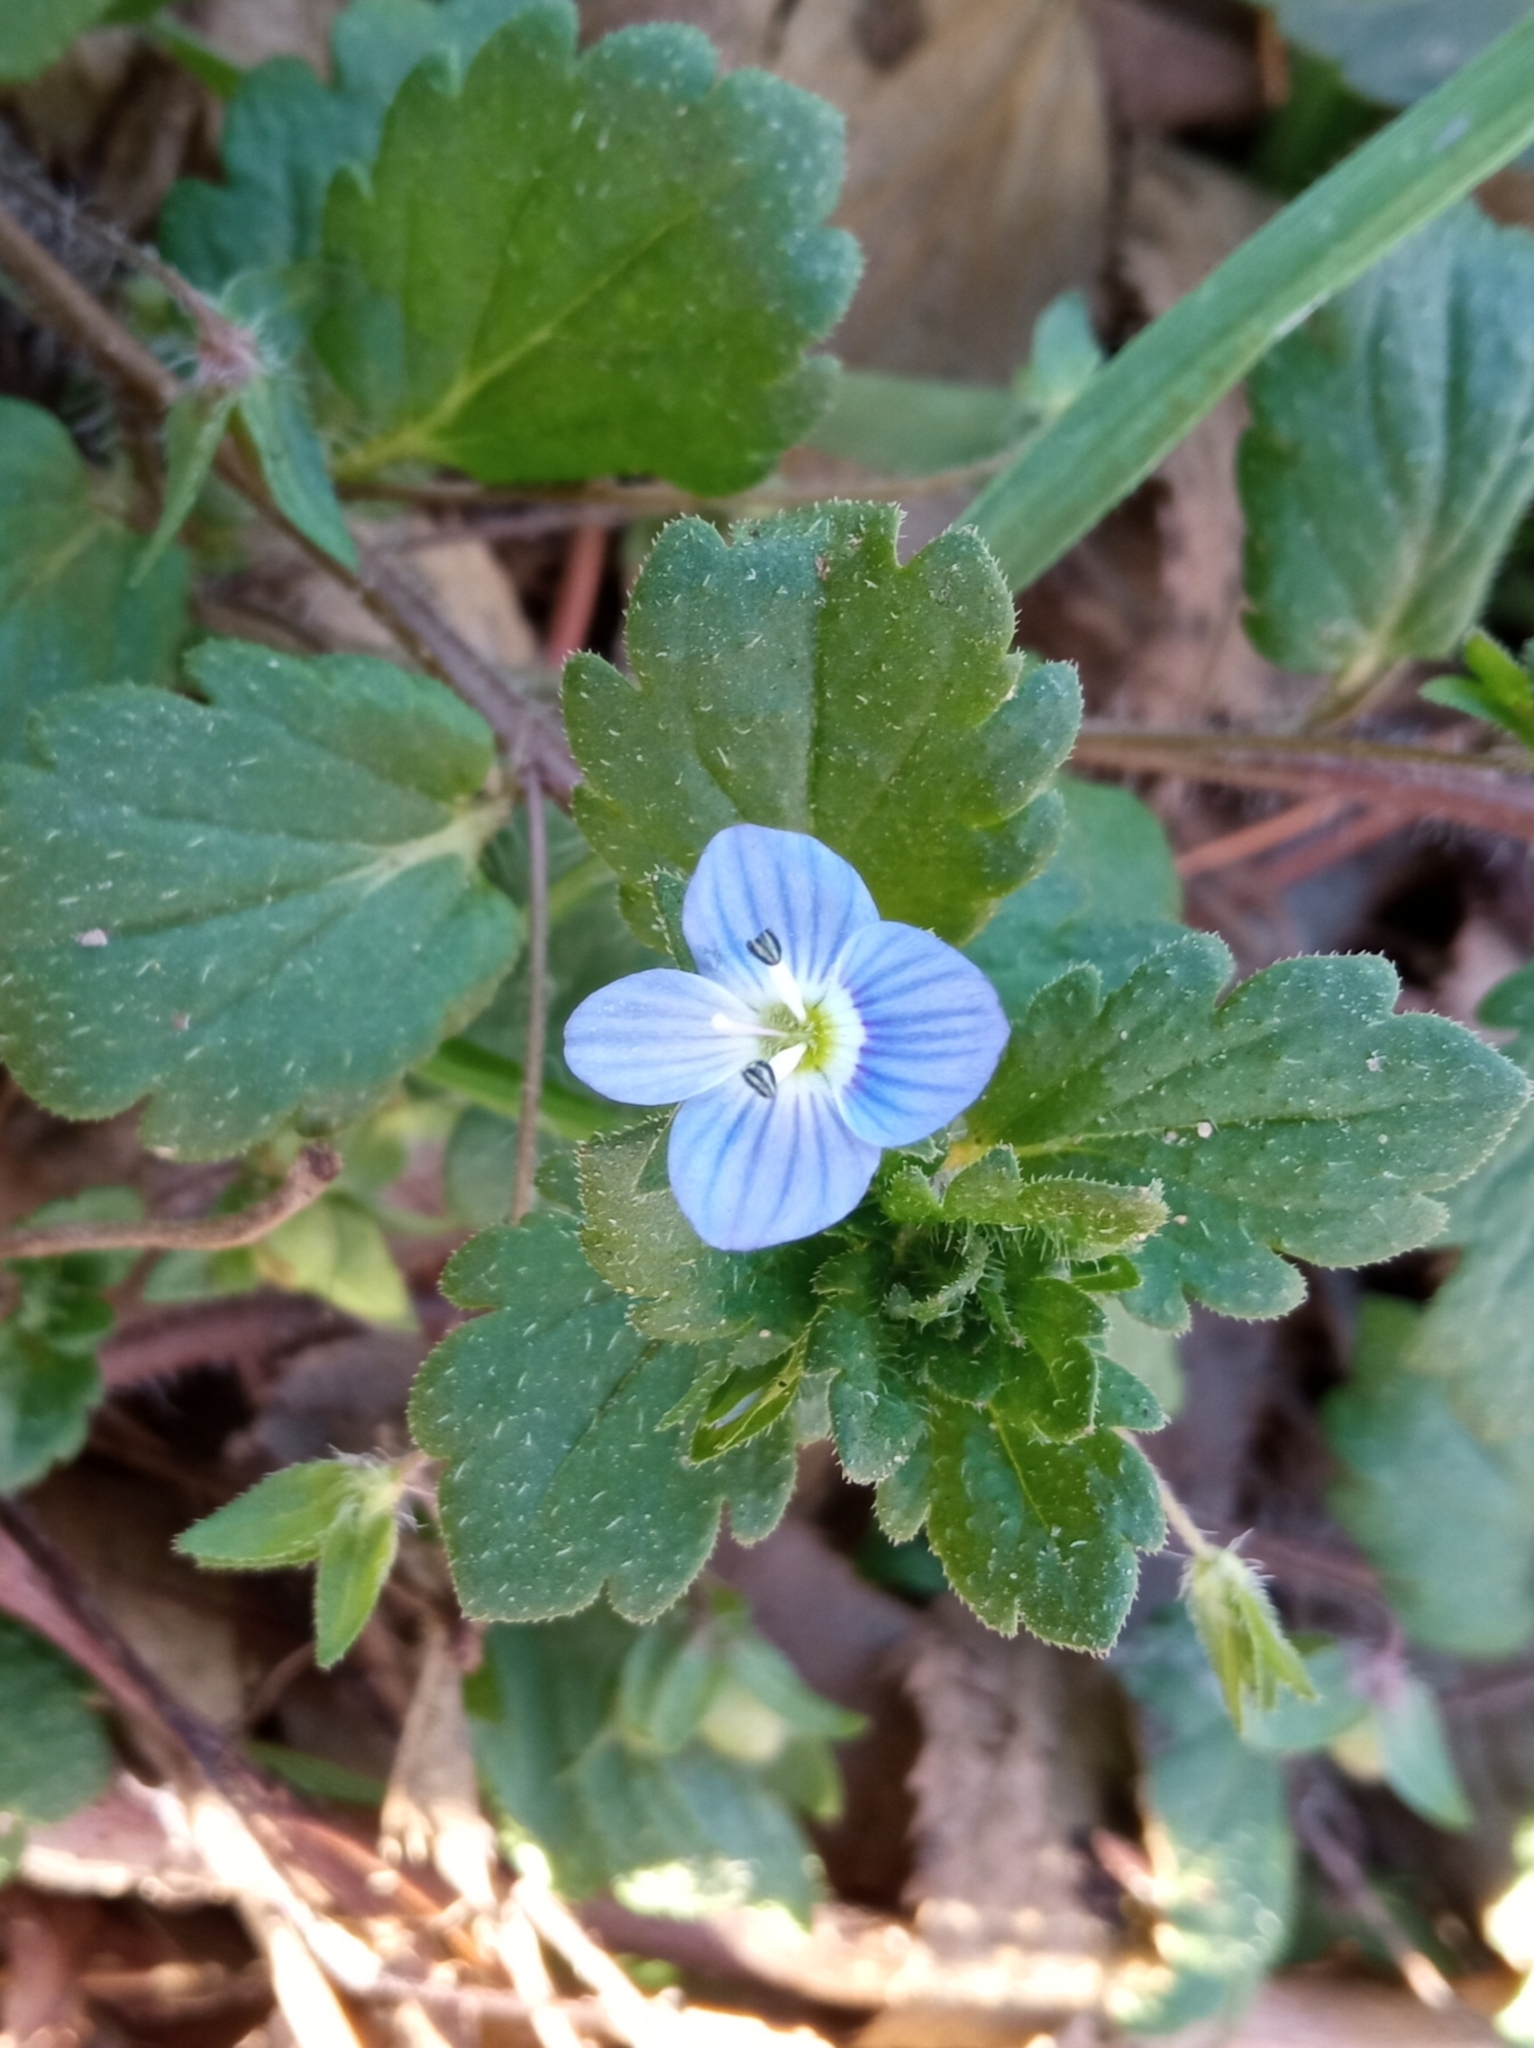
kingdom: Plantae
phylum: Tracheophyta
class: Magnoliopsida
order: Lamiales
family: Plantaginaceae
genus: Veronica
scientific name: Veronica persica
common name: Common field-speedwell
